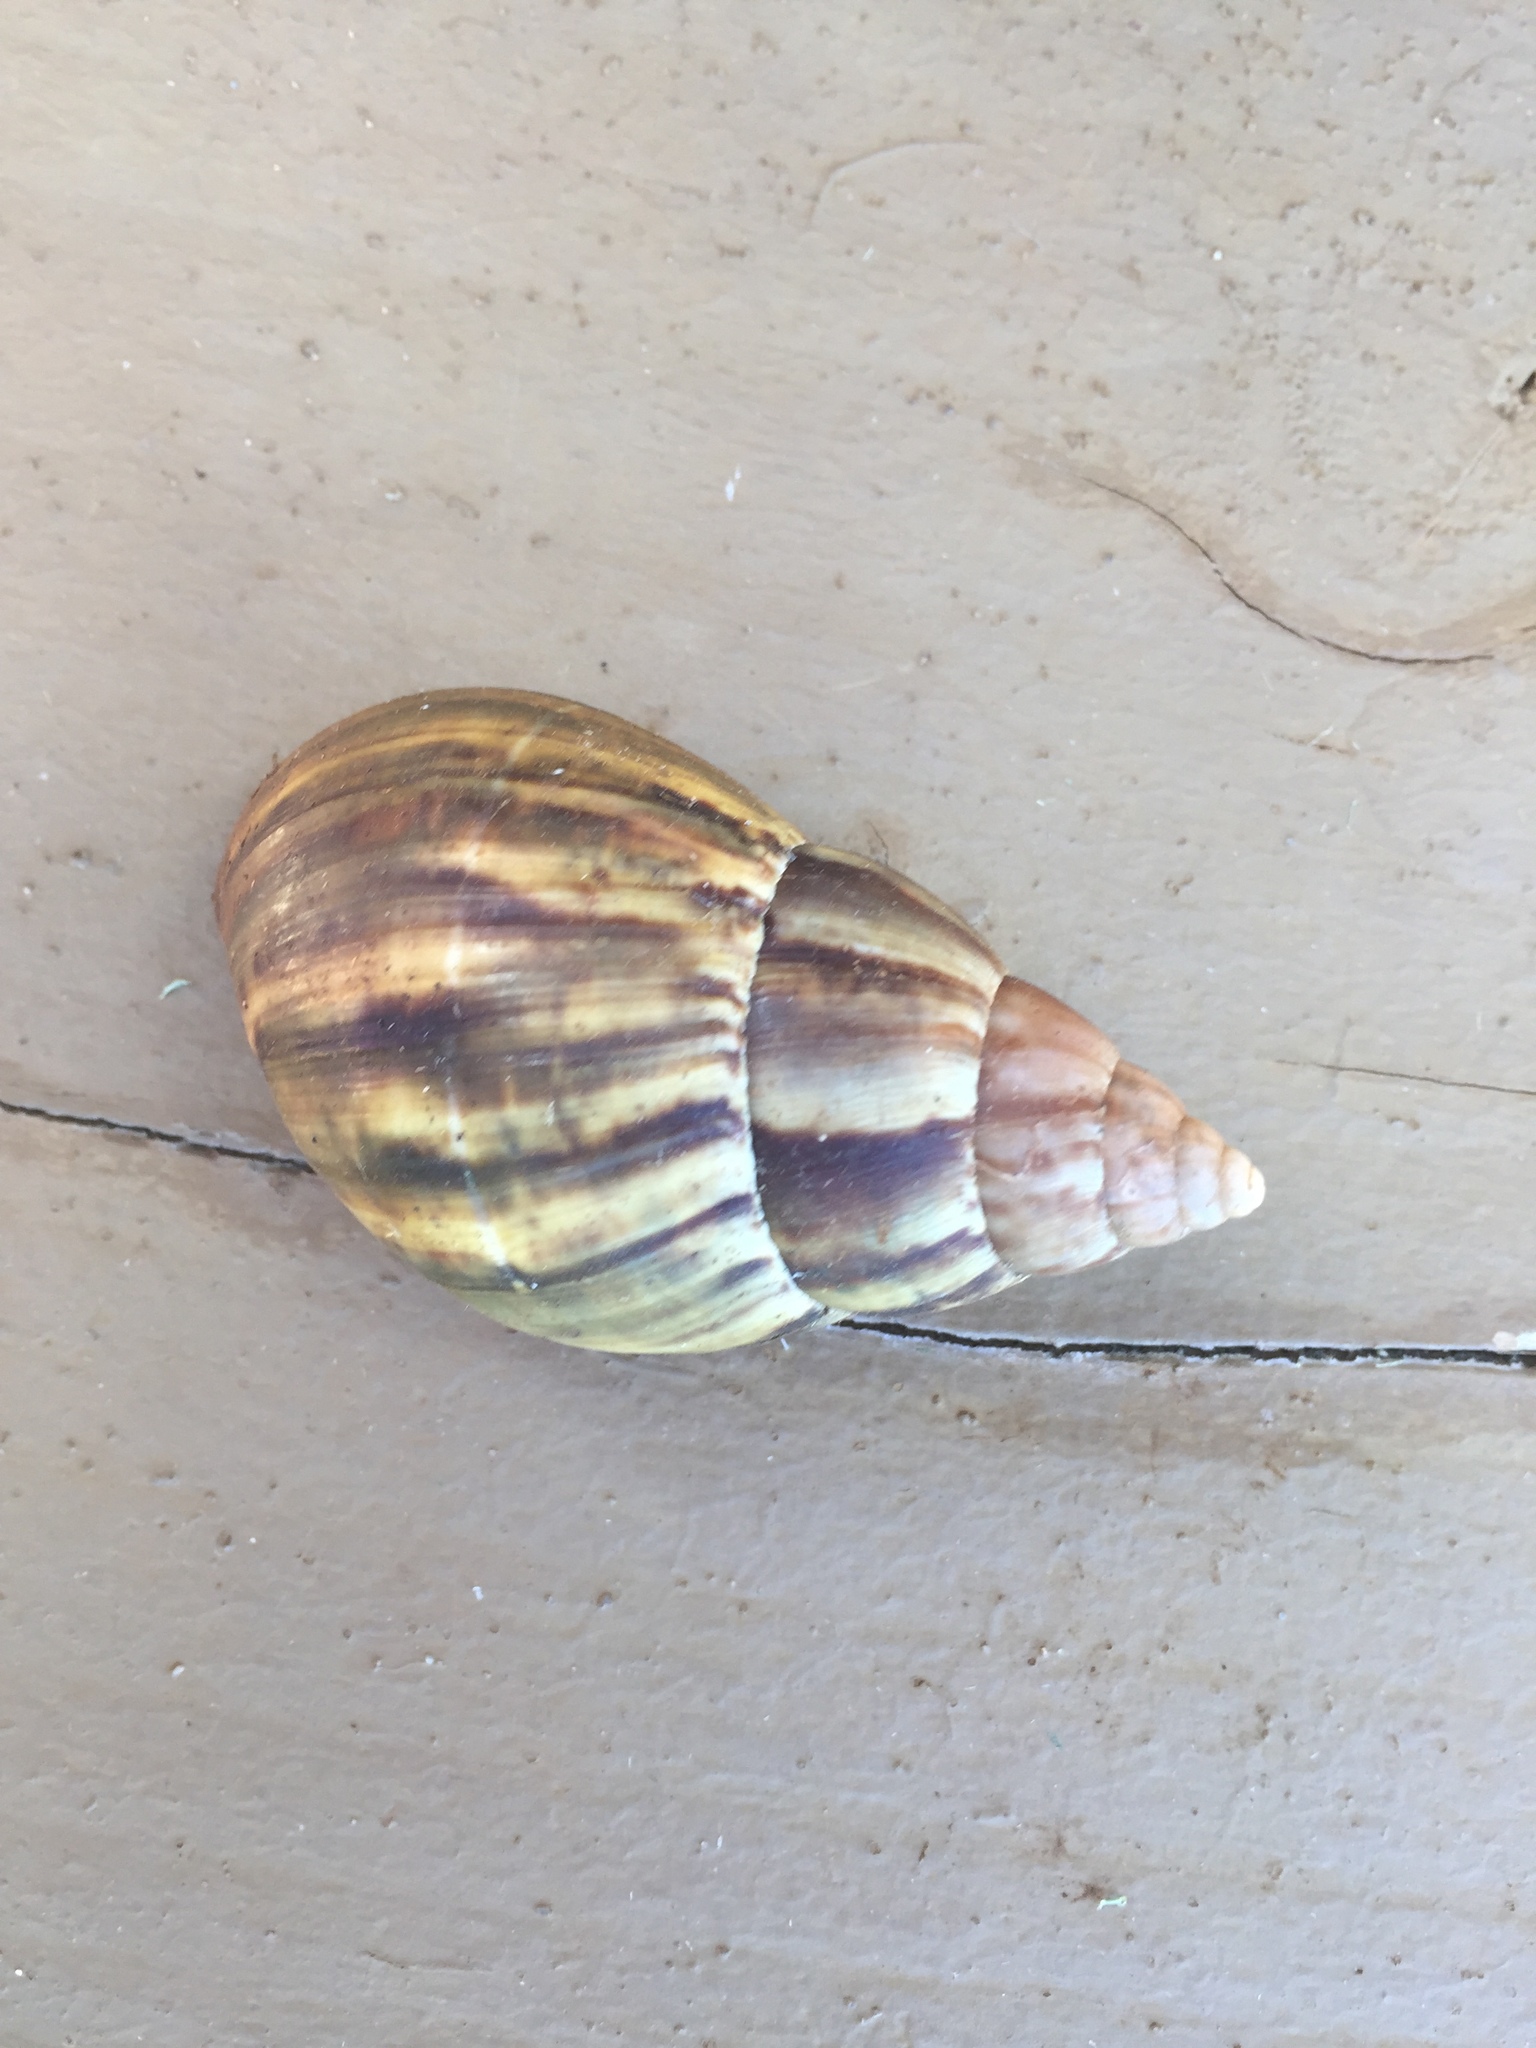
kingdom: Animalia
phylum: Mollusca
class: Gastropoda
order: Stylommatophora
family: Achatinidae
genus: Lissachatina
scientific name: Lissachatina fulica
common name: Giant african snail
